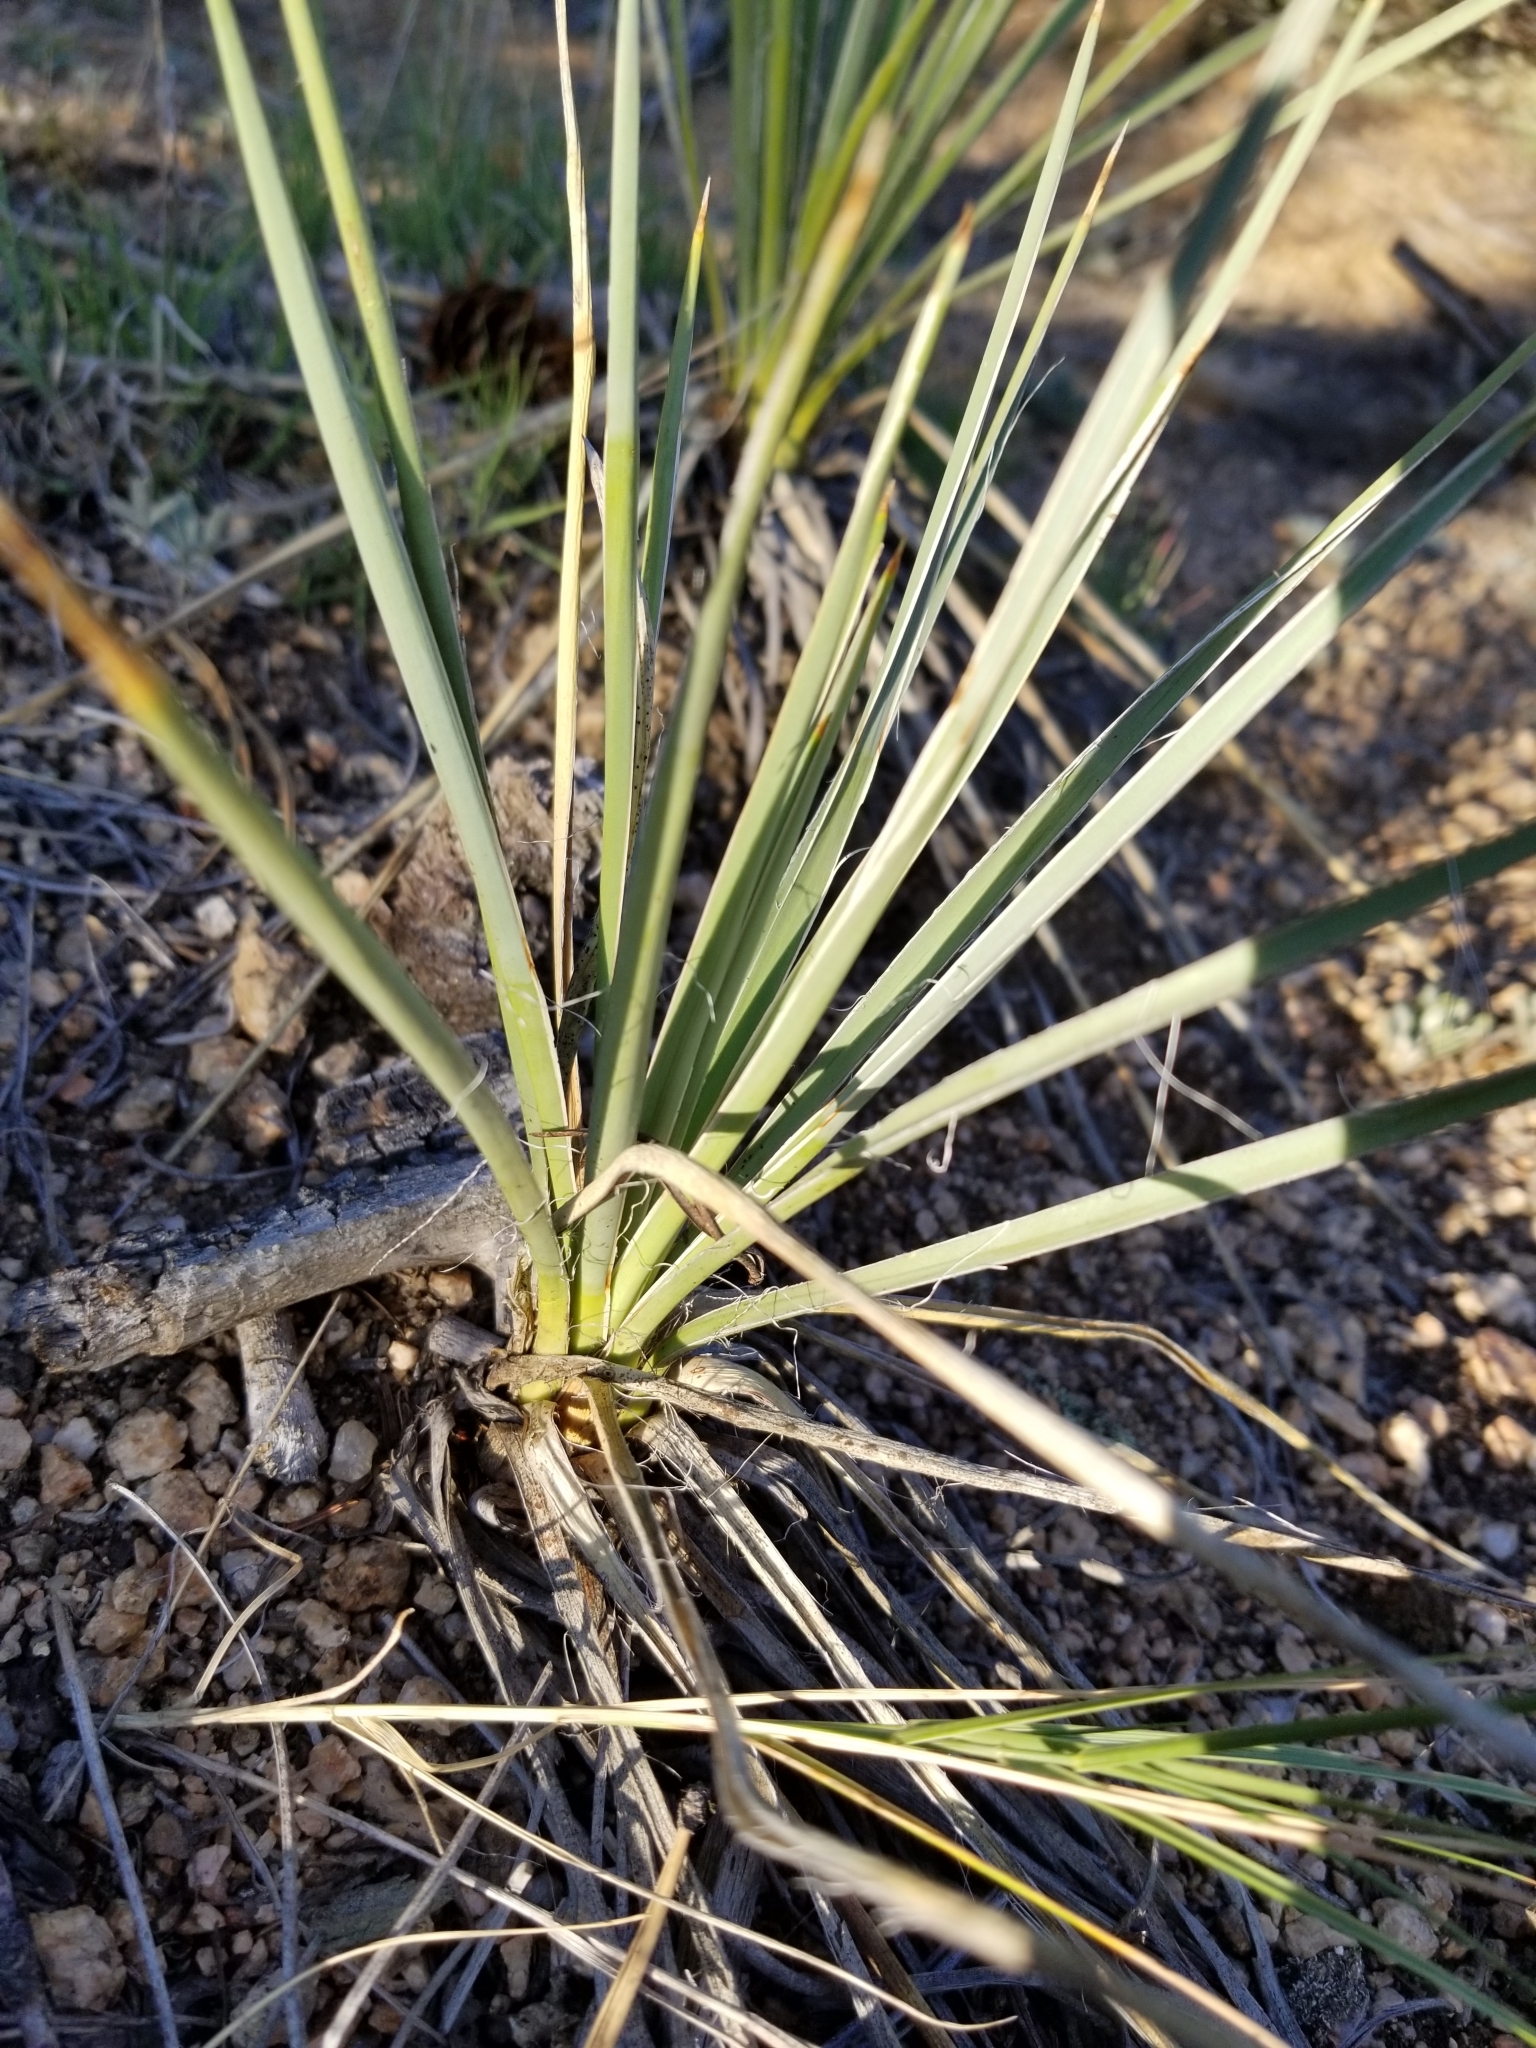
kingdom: Plantae
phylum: Tracheophyta
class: Liliopsida
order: Asparagales
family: Asparagaceae
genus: Yucca
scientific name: Yucca glauca
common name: Great plains yucca
